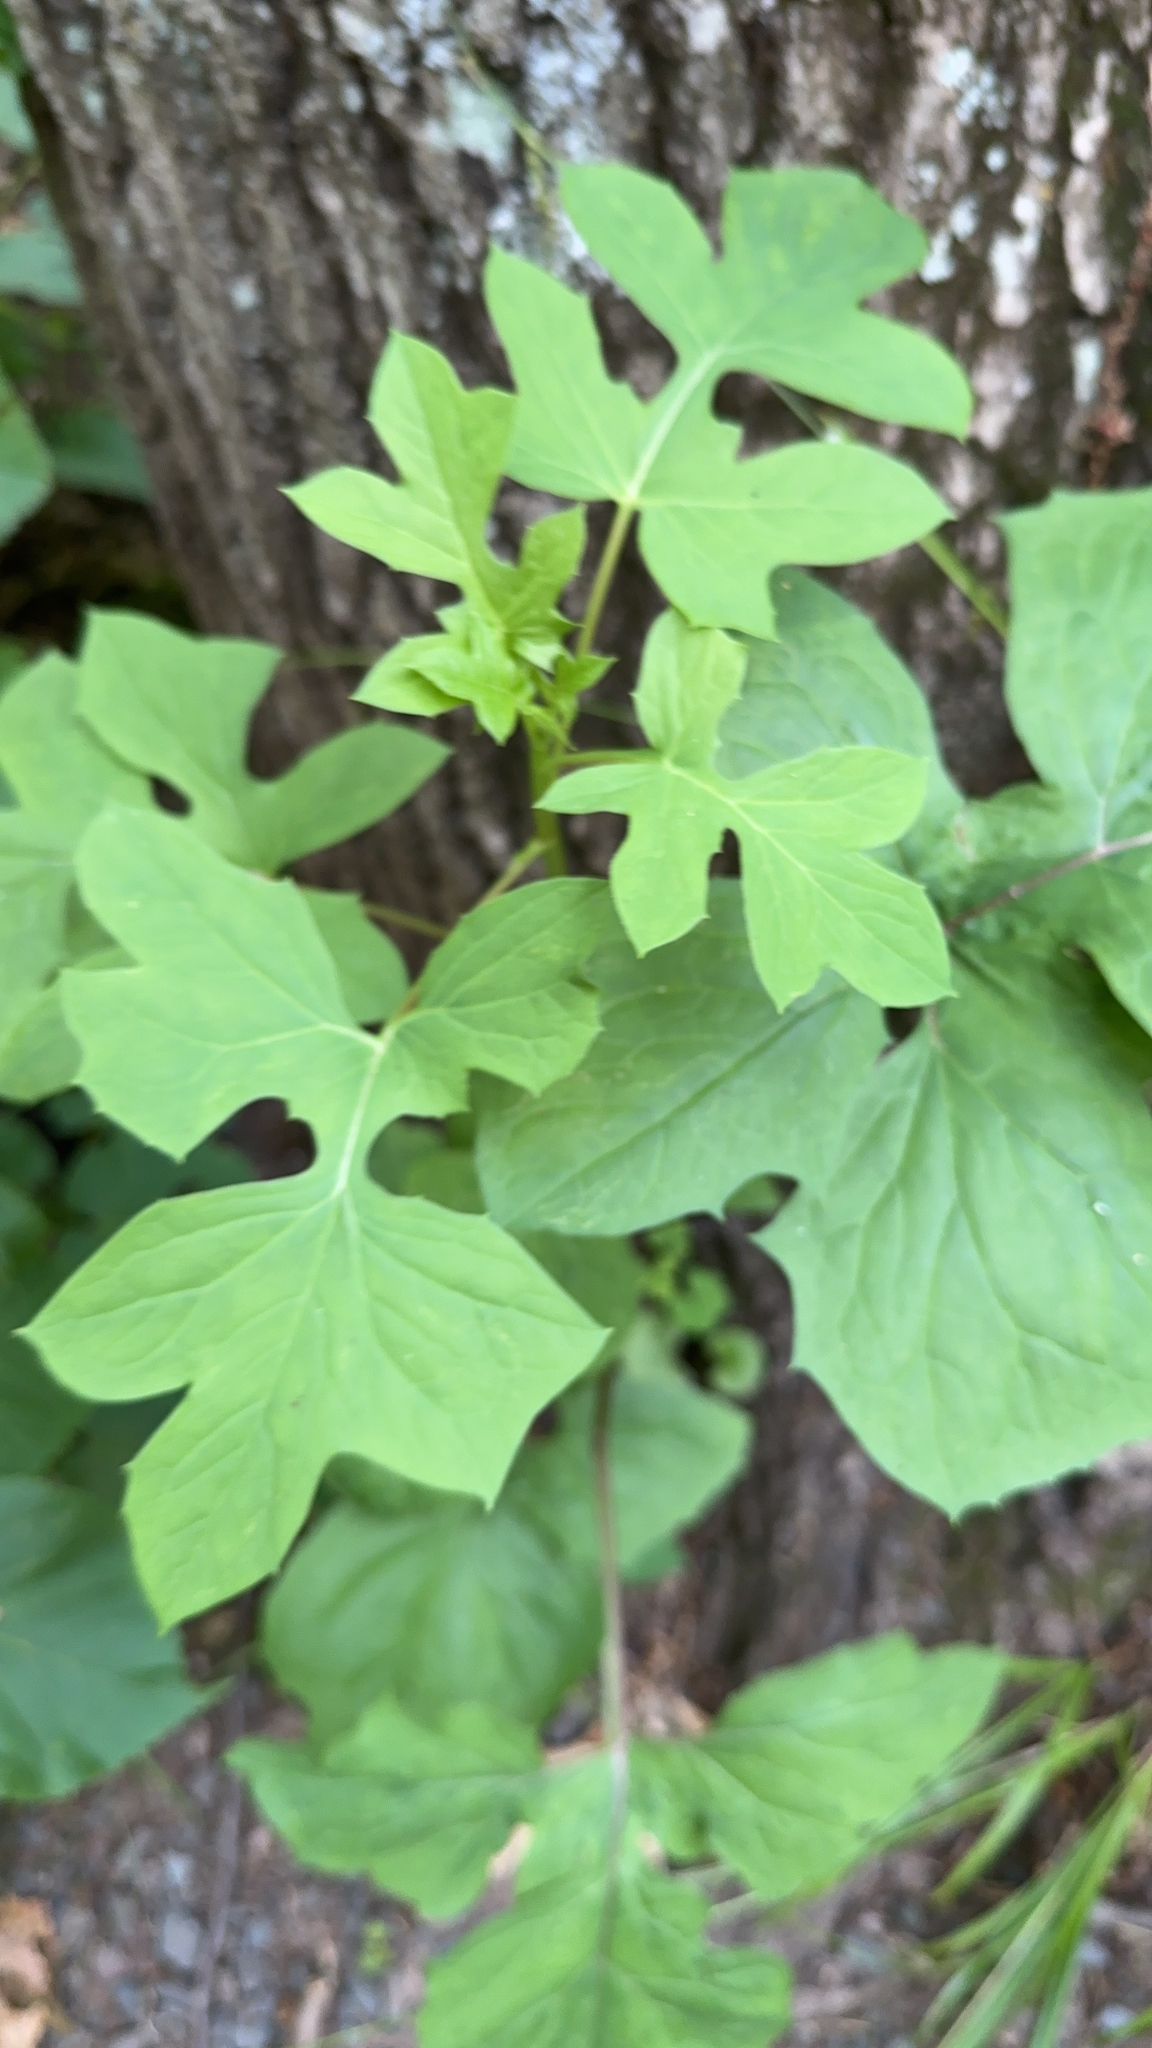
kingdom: Plantae
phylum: Tracheophyta
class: Magnoliopsida
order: Asterales
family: Asteraceae
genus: Nabalus
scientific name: Nabalus albus
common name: White rattlesnakeroot
